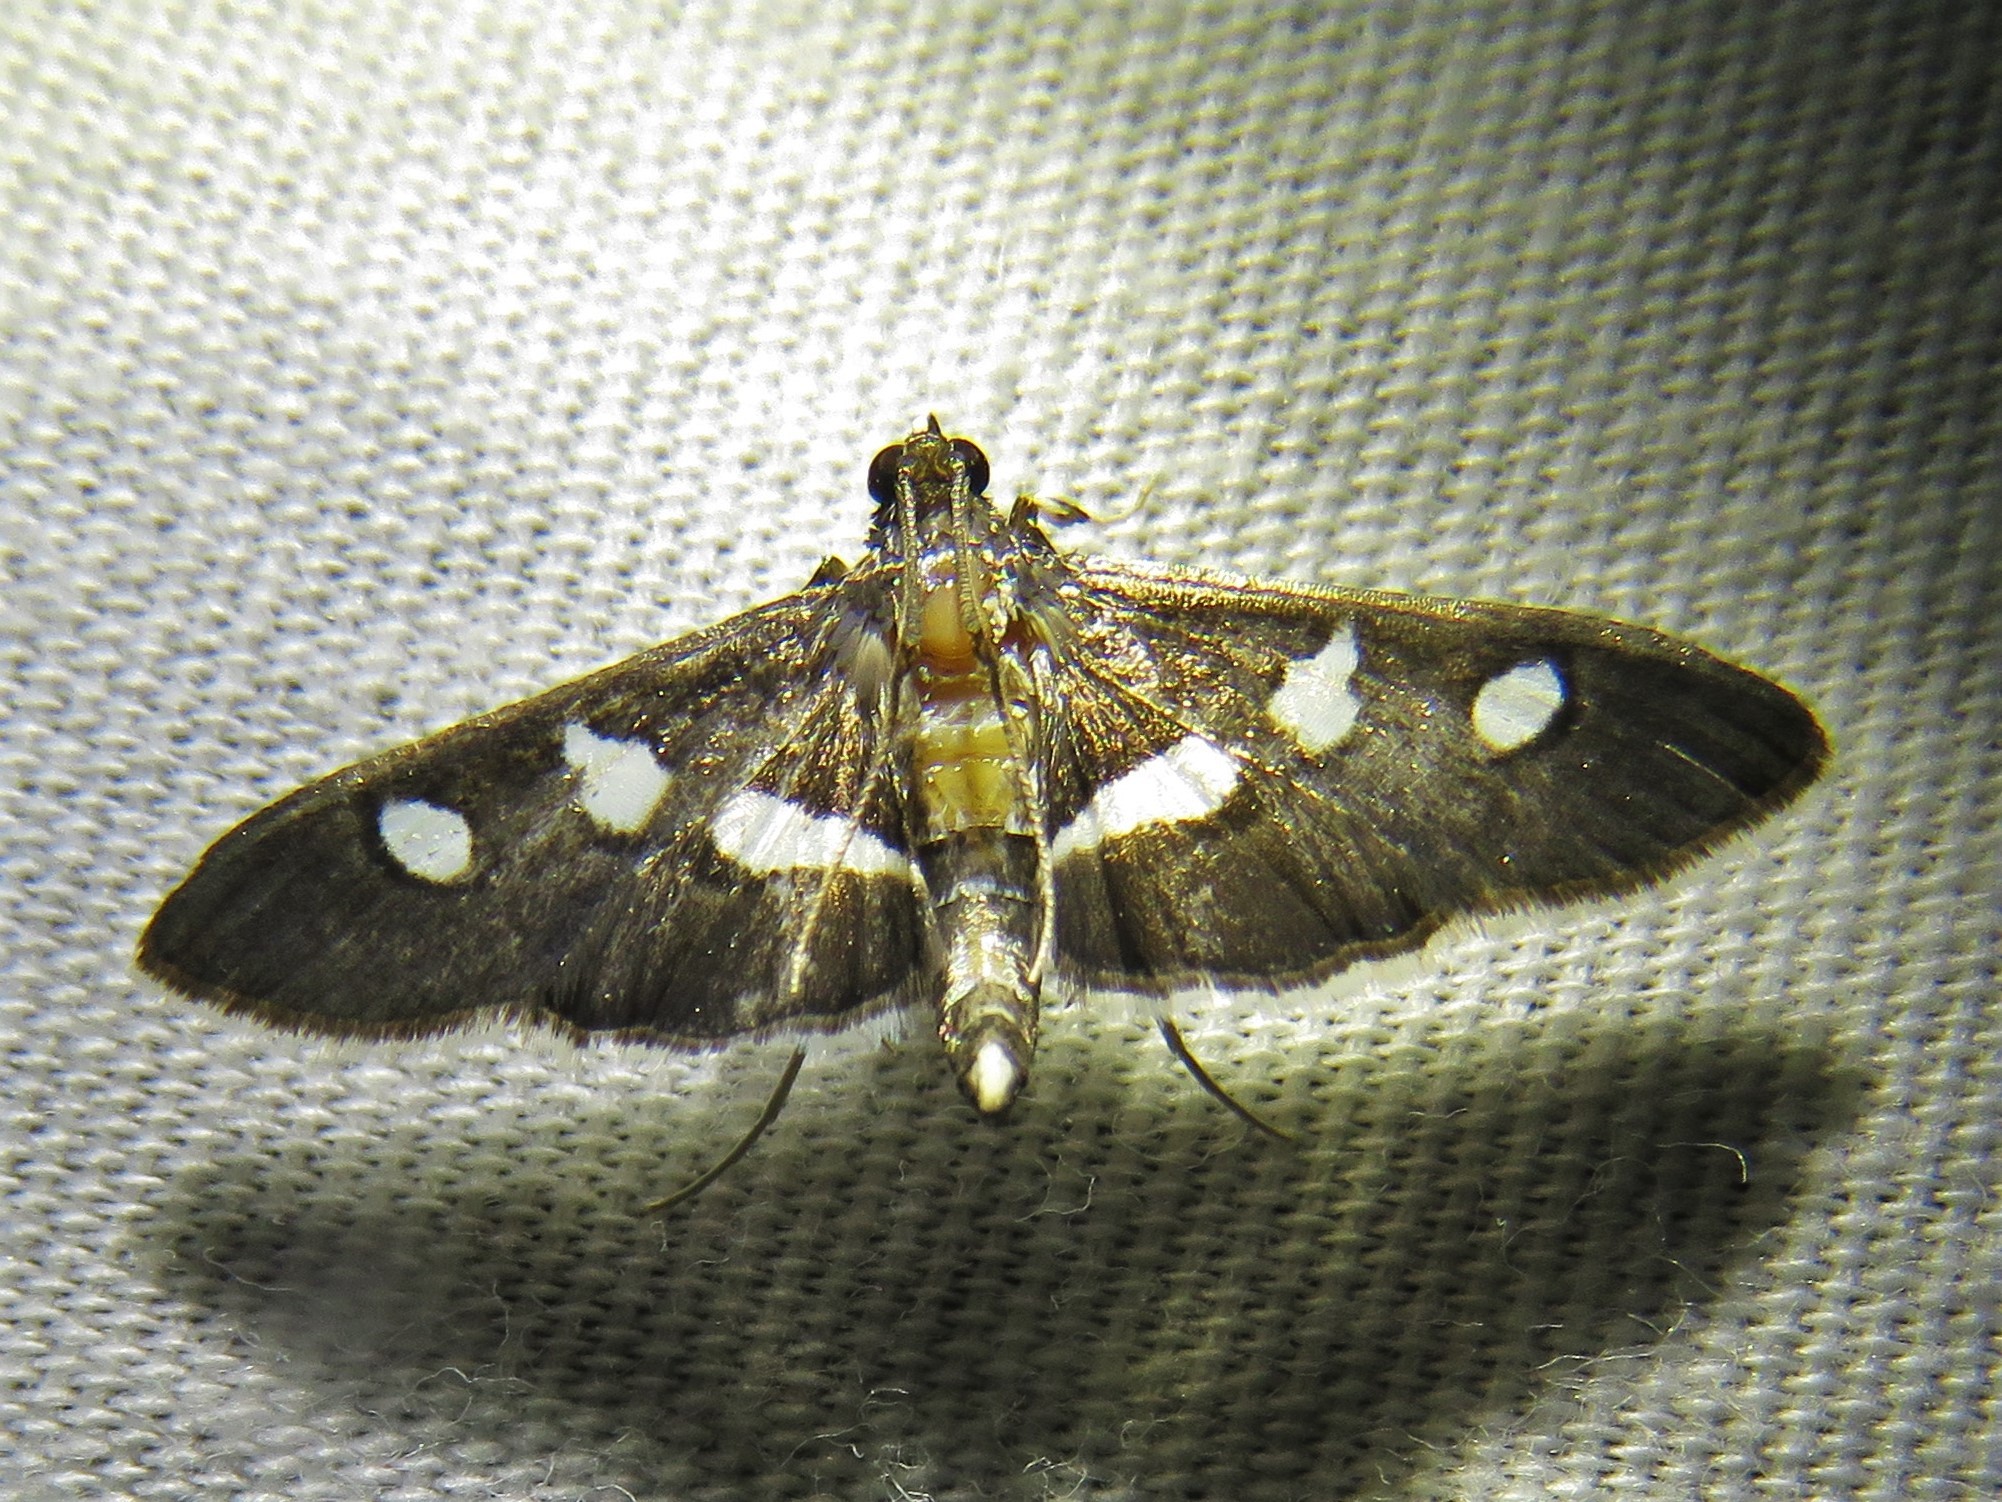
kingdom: Animalia
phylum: Arthropoda
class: Insecta
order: Lepidoptera
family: Crambidae
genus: Desmia
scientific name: Desmia funeralis
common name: Grape leaf folder moth
